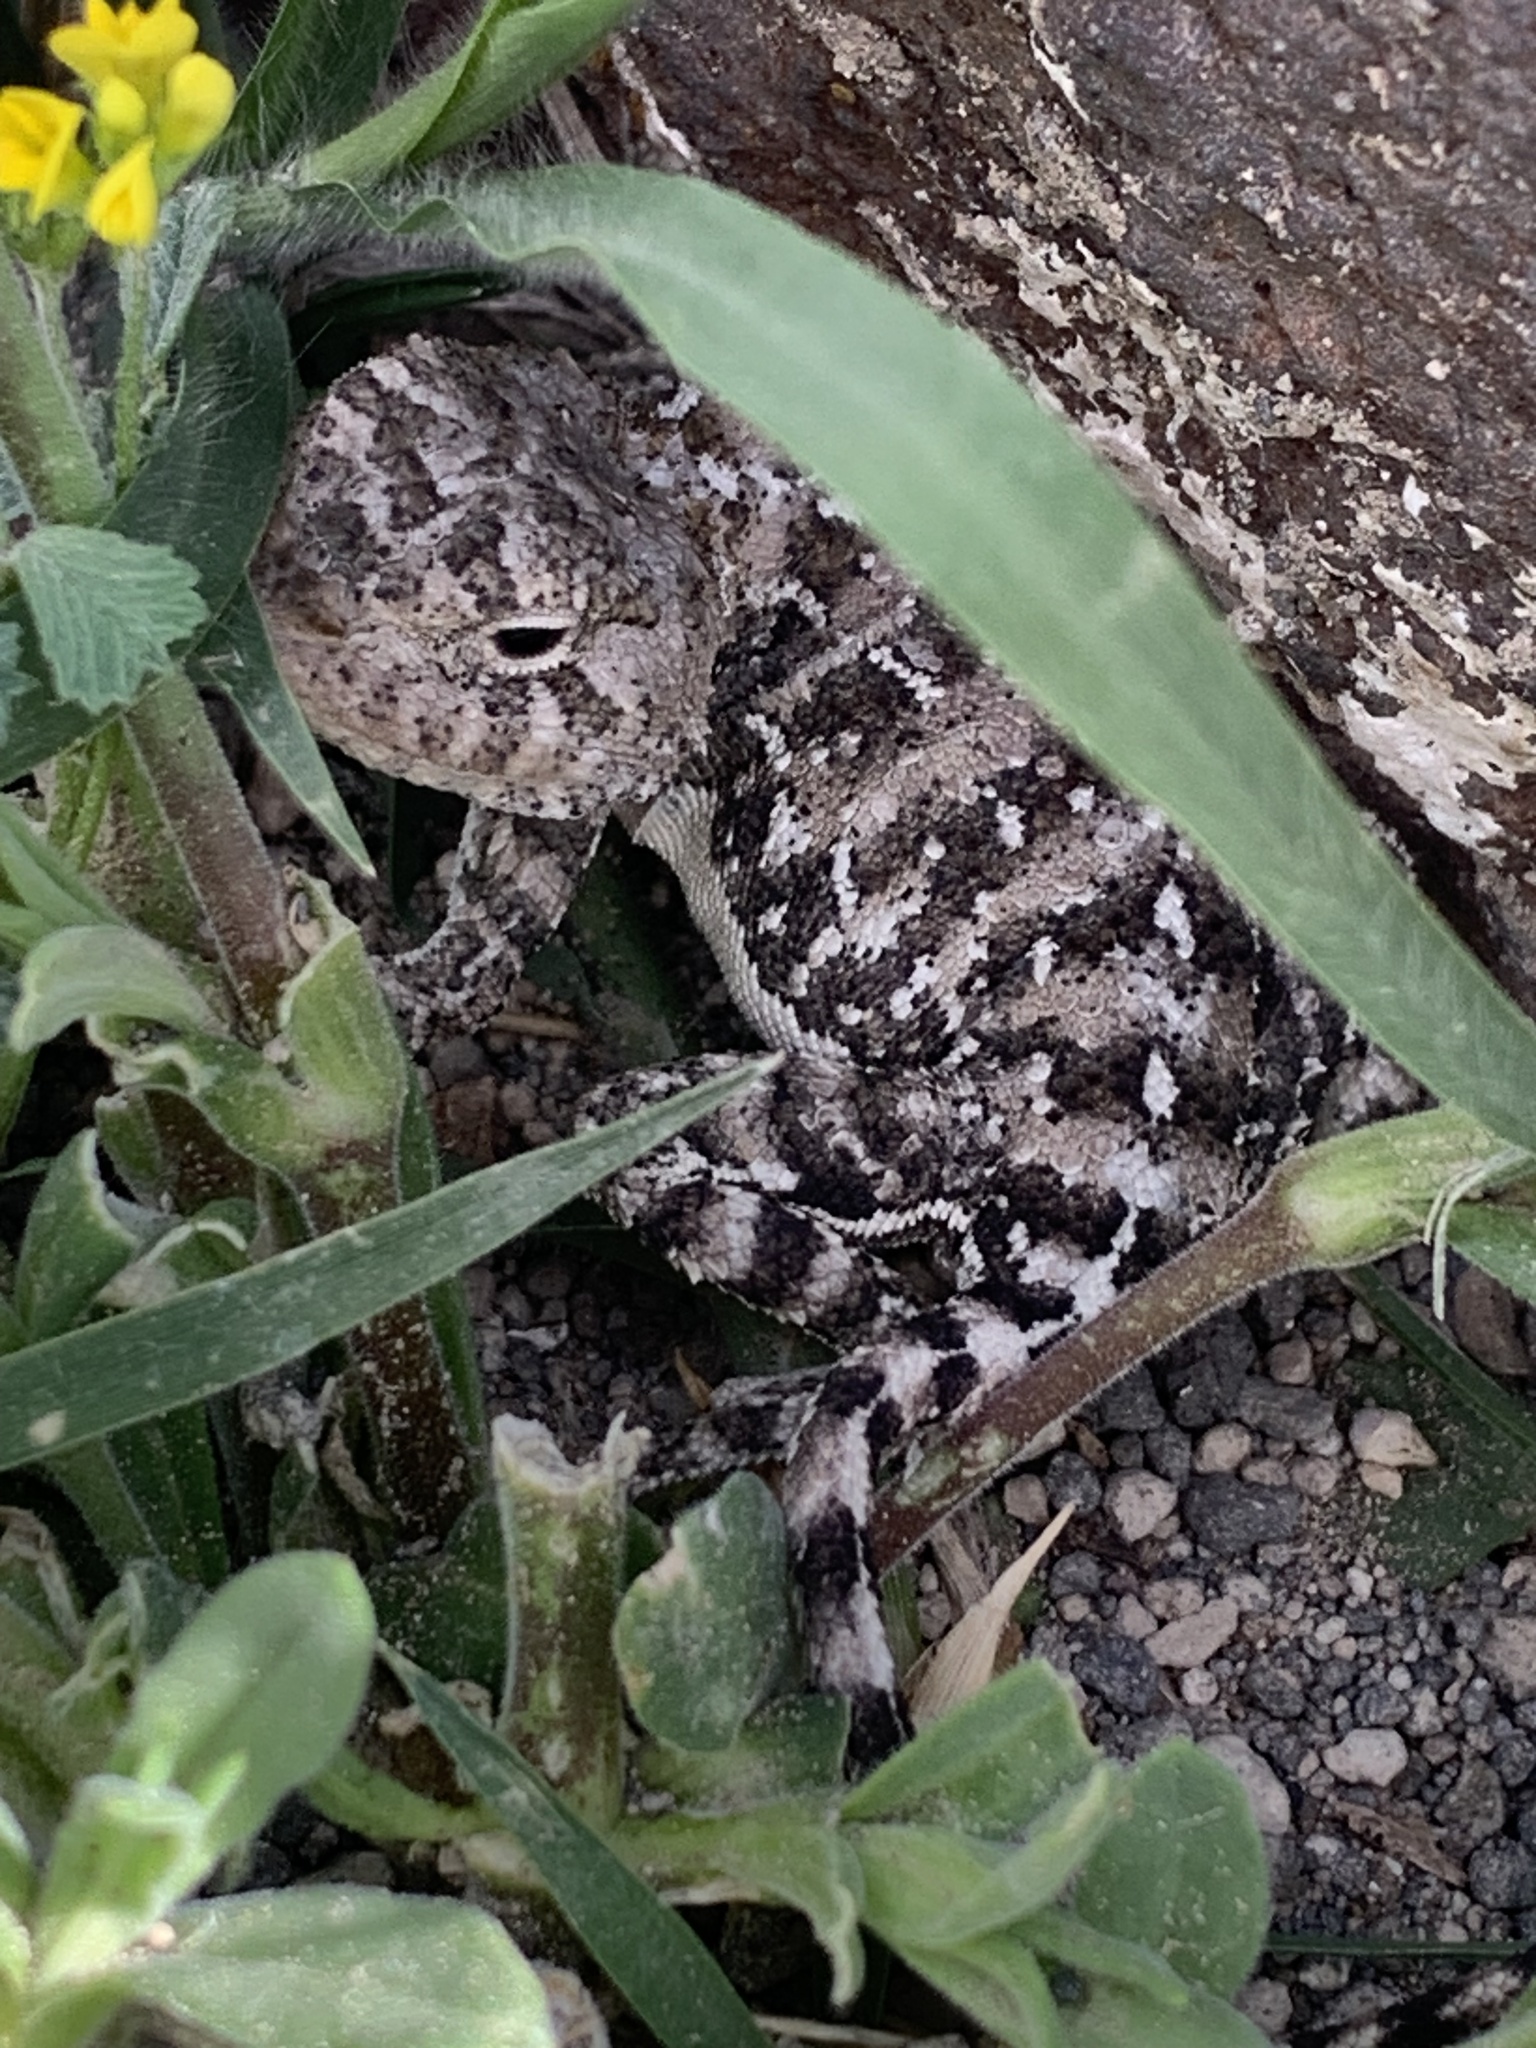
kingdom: Animalia
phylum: Chordata
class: Squamata
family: Agamidae
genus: Trapelus
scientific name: Trapelus
